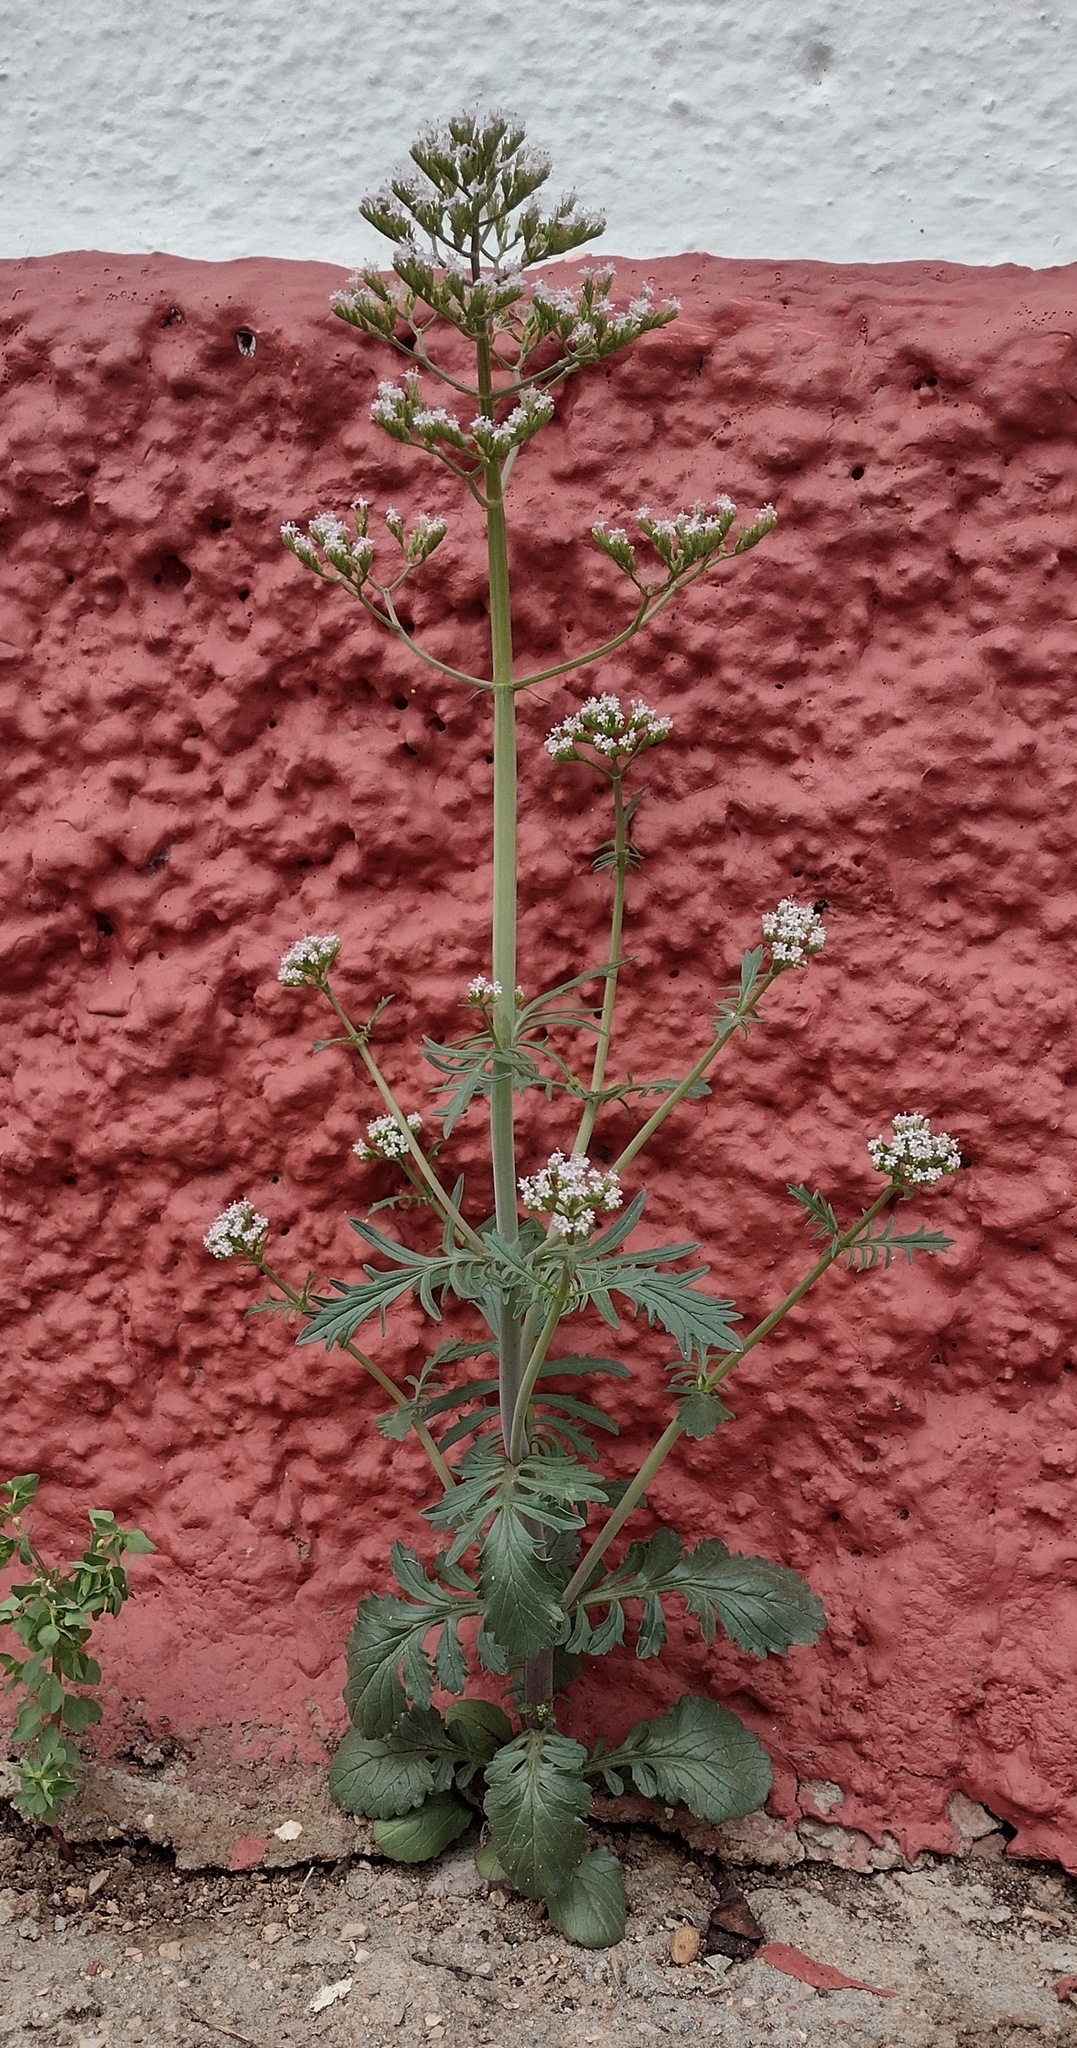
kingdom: Plantae
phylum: Tracheophyta
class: Magnoliopsida
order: Dipsacales
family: Caprifoliaceae
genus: Centranthus
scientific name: Centranthus calcitrapae
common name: Annual valerian
